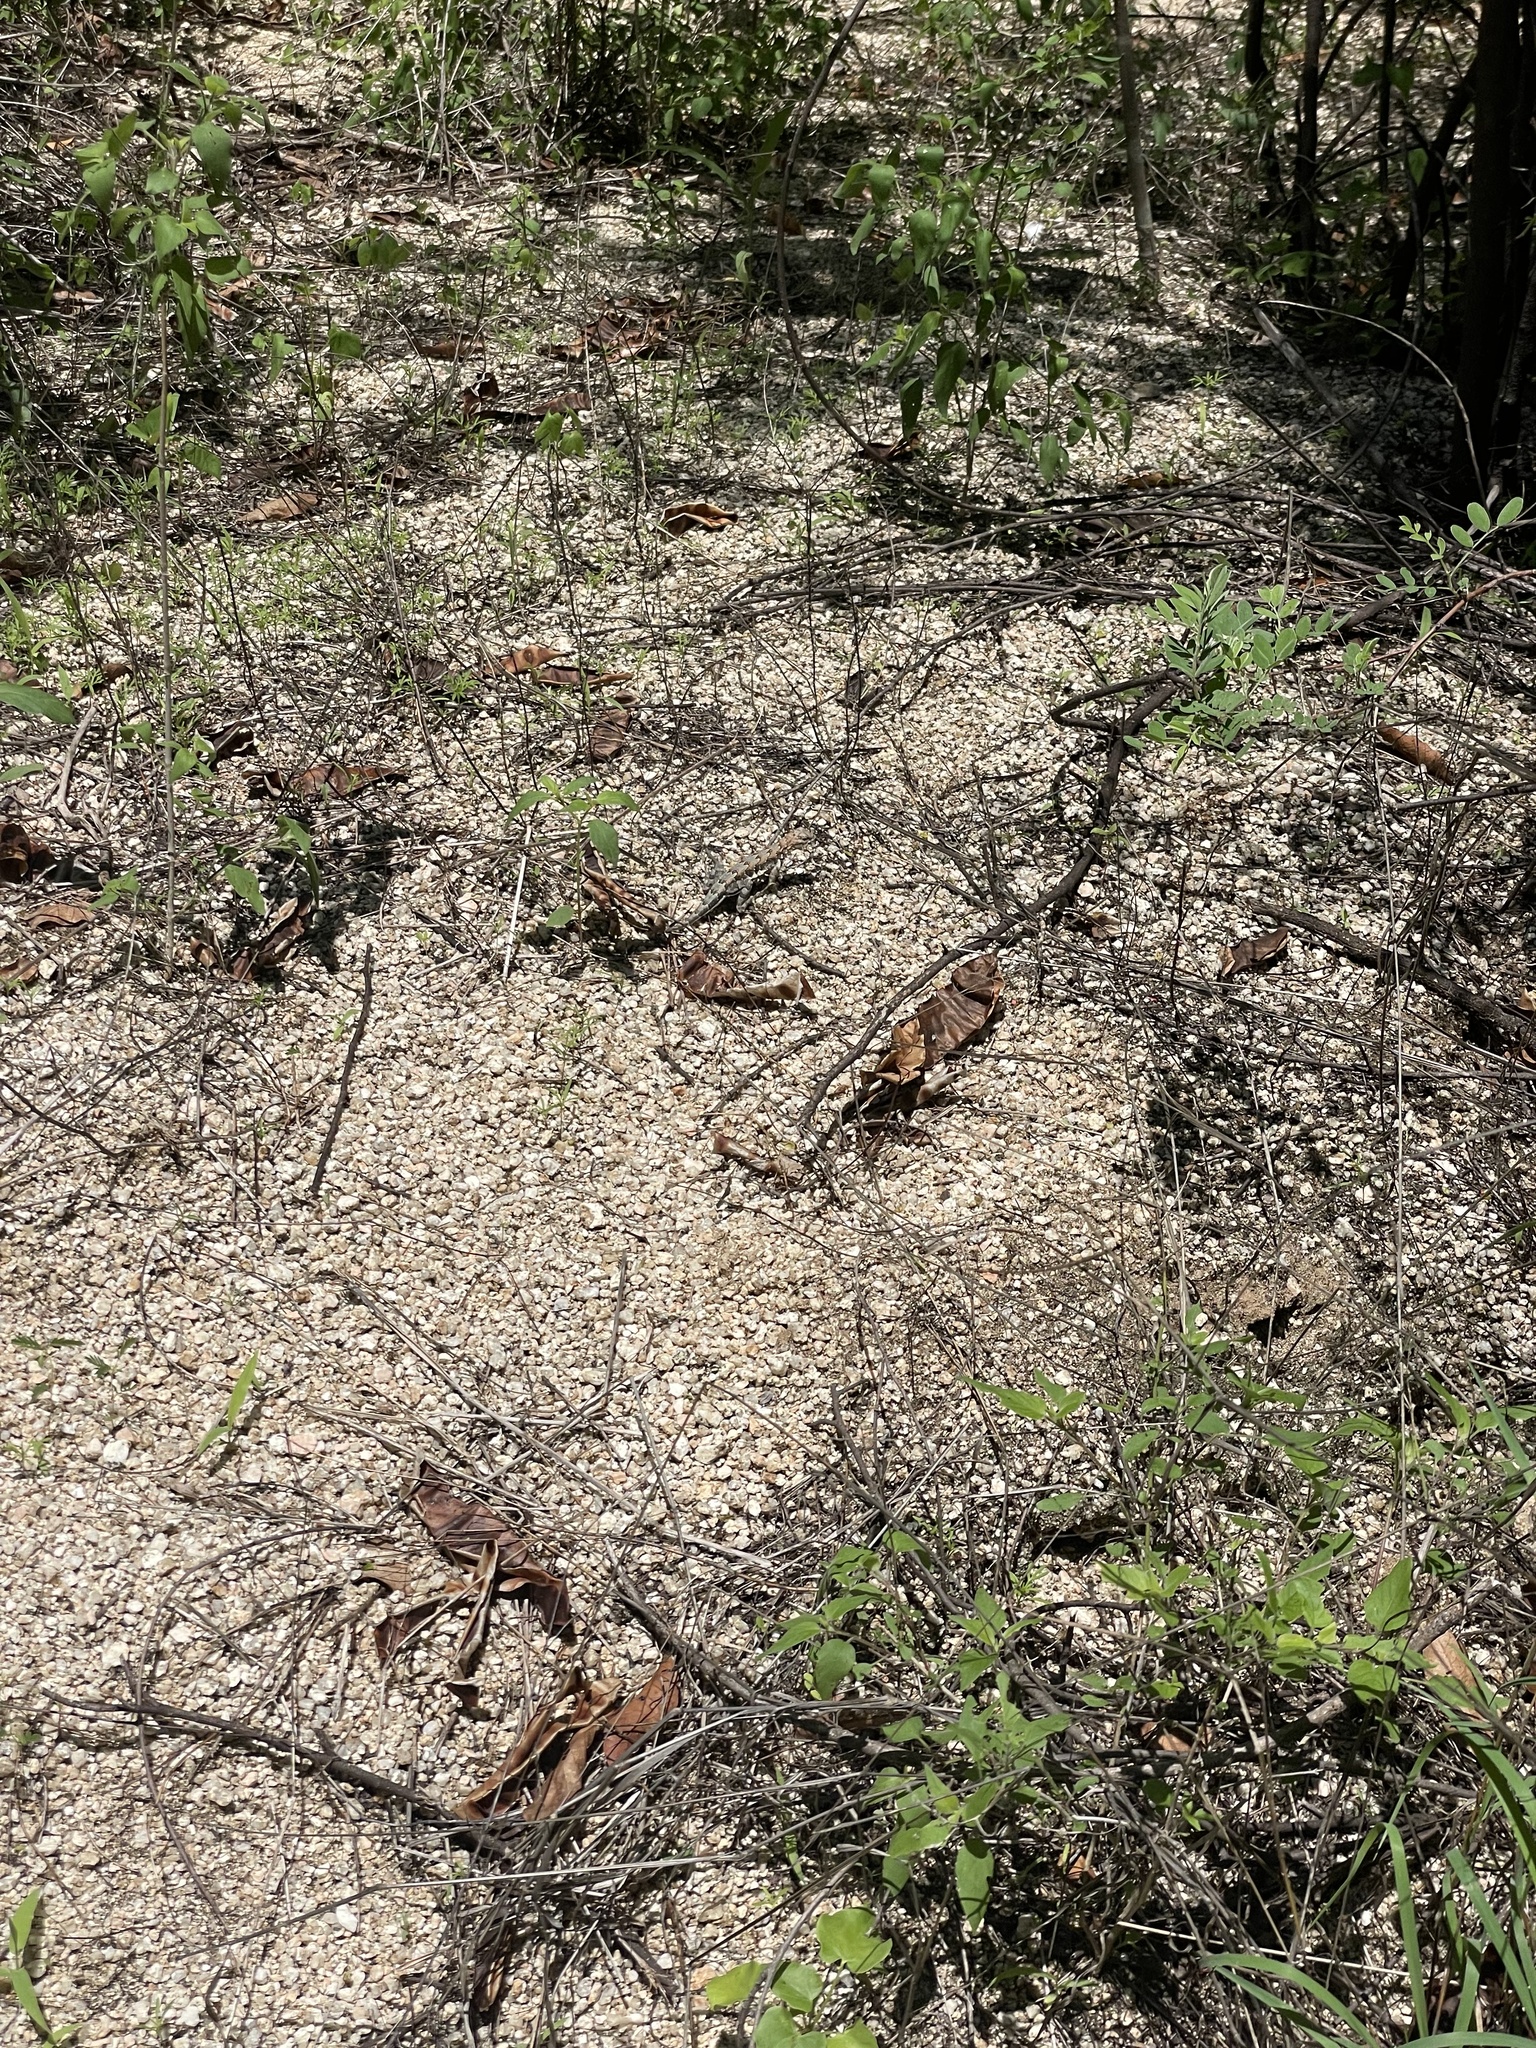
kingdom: Animalia
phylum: Chordata
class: Squamata
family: Phrynosomatidae
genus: Callisaurus
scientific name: Callisaurus draconoides
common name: Zebra-tailed lizard
